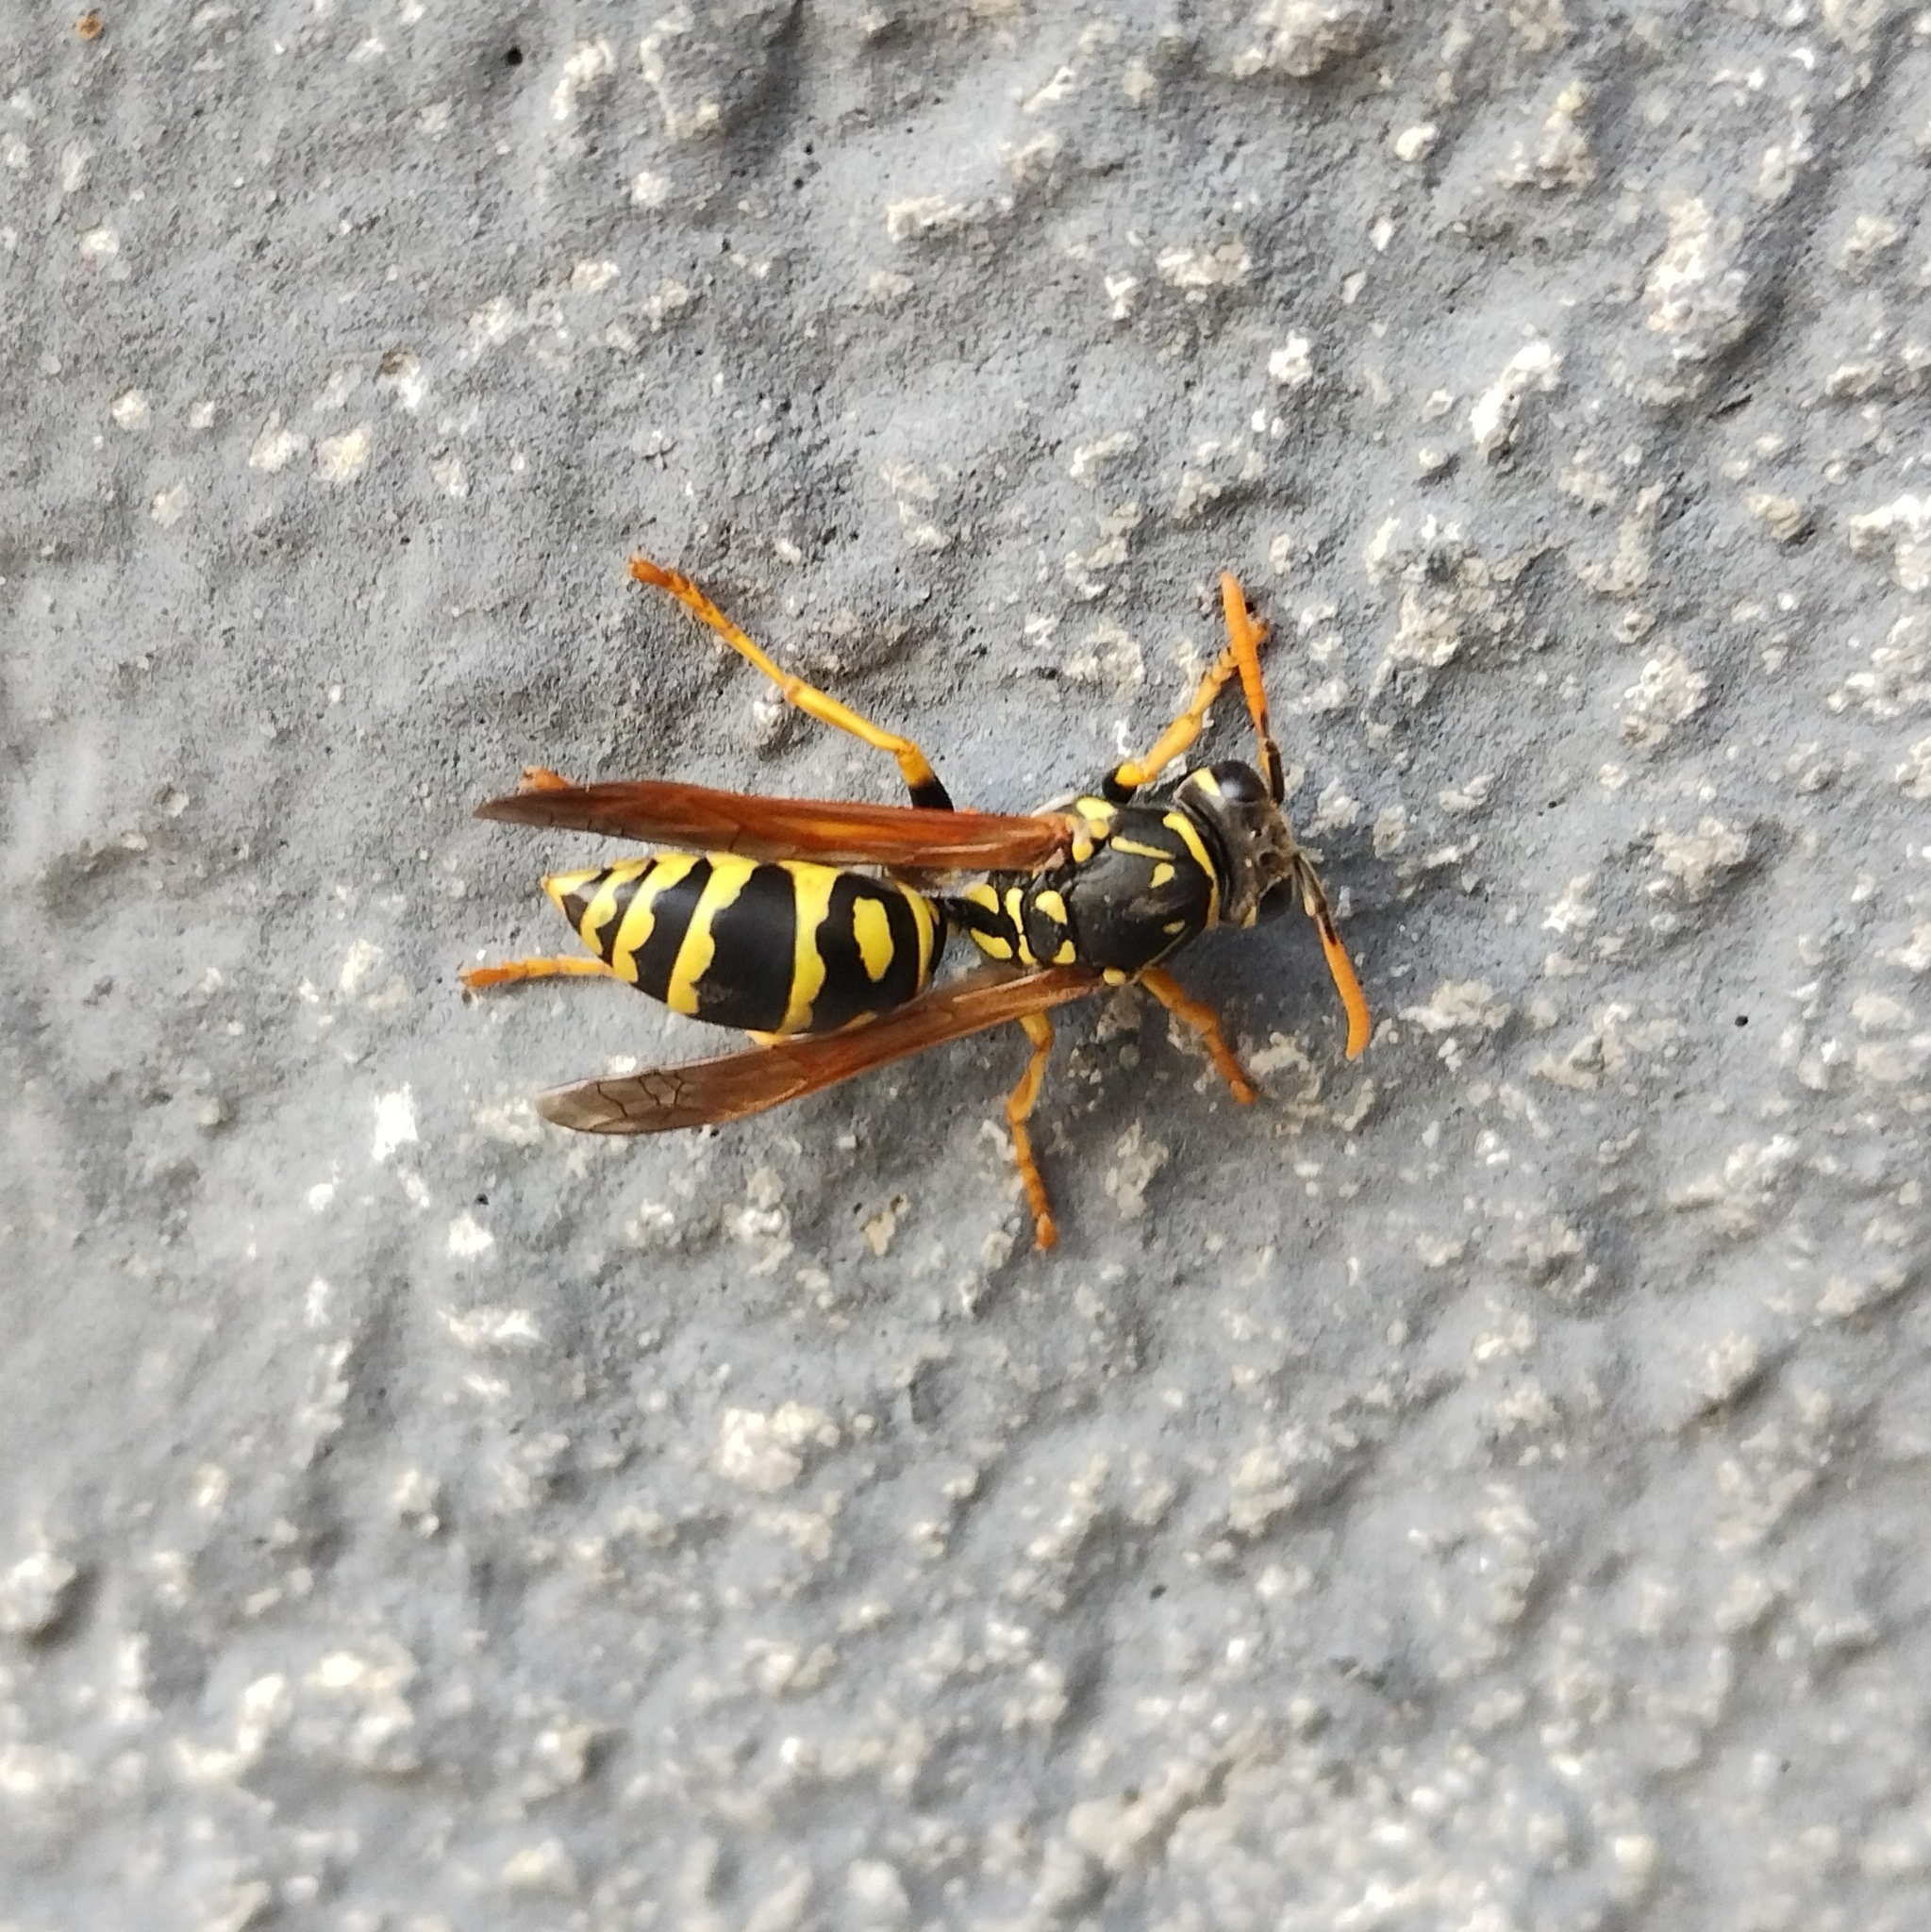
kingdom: Animalia
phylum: Arthropoda
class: Insecta
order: Hymenoptera
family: Eumenidae
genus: Polistes
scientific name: Polistes dominula
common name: Paper wasp
